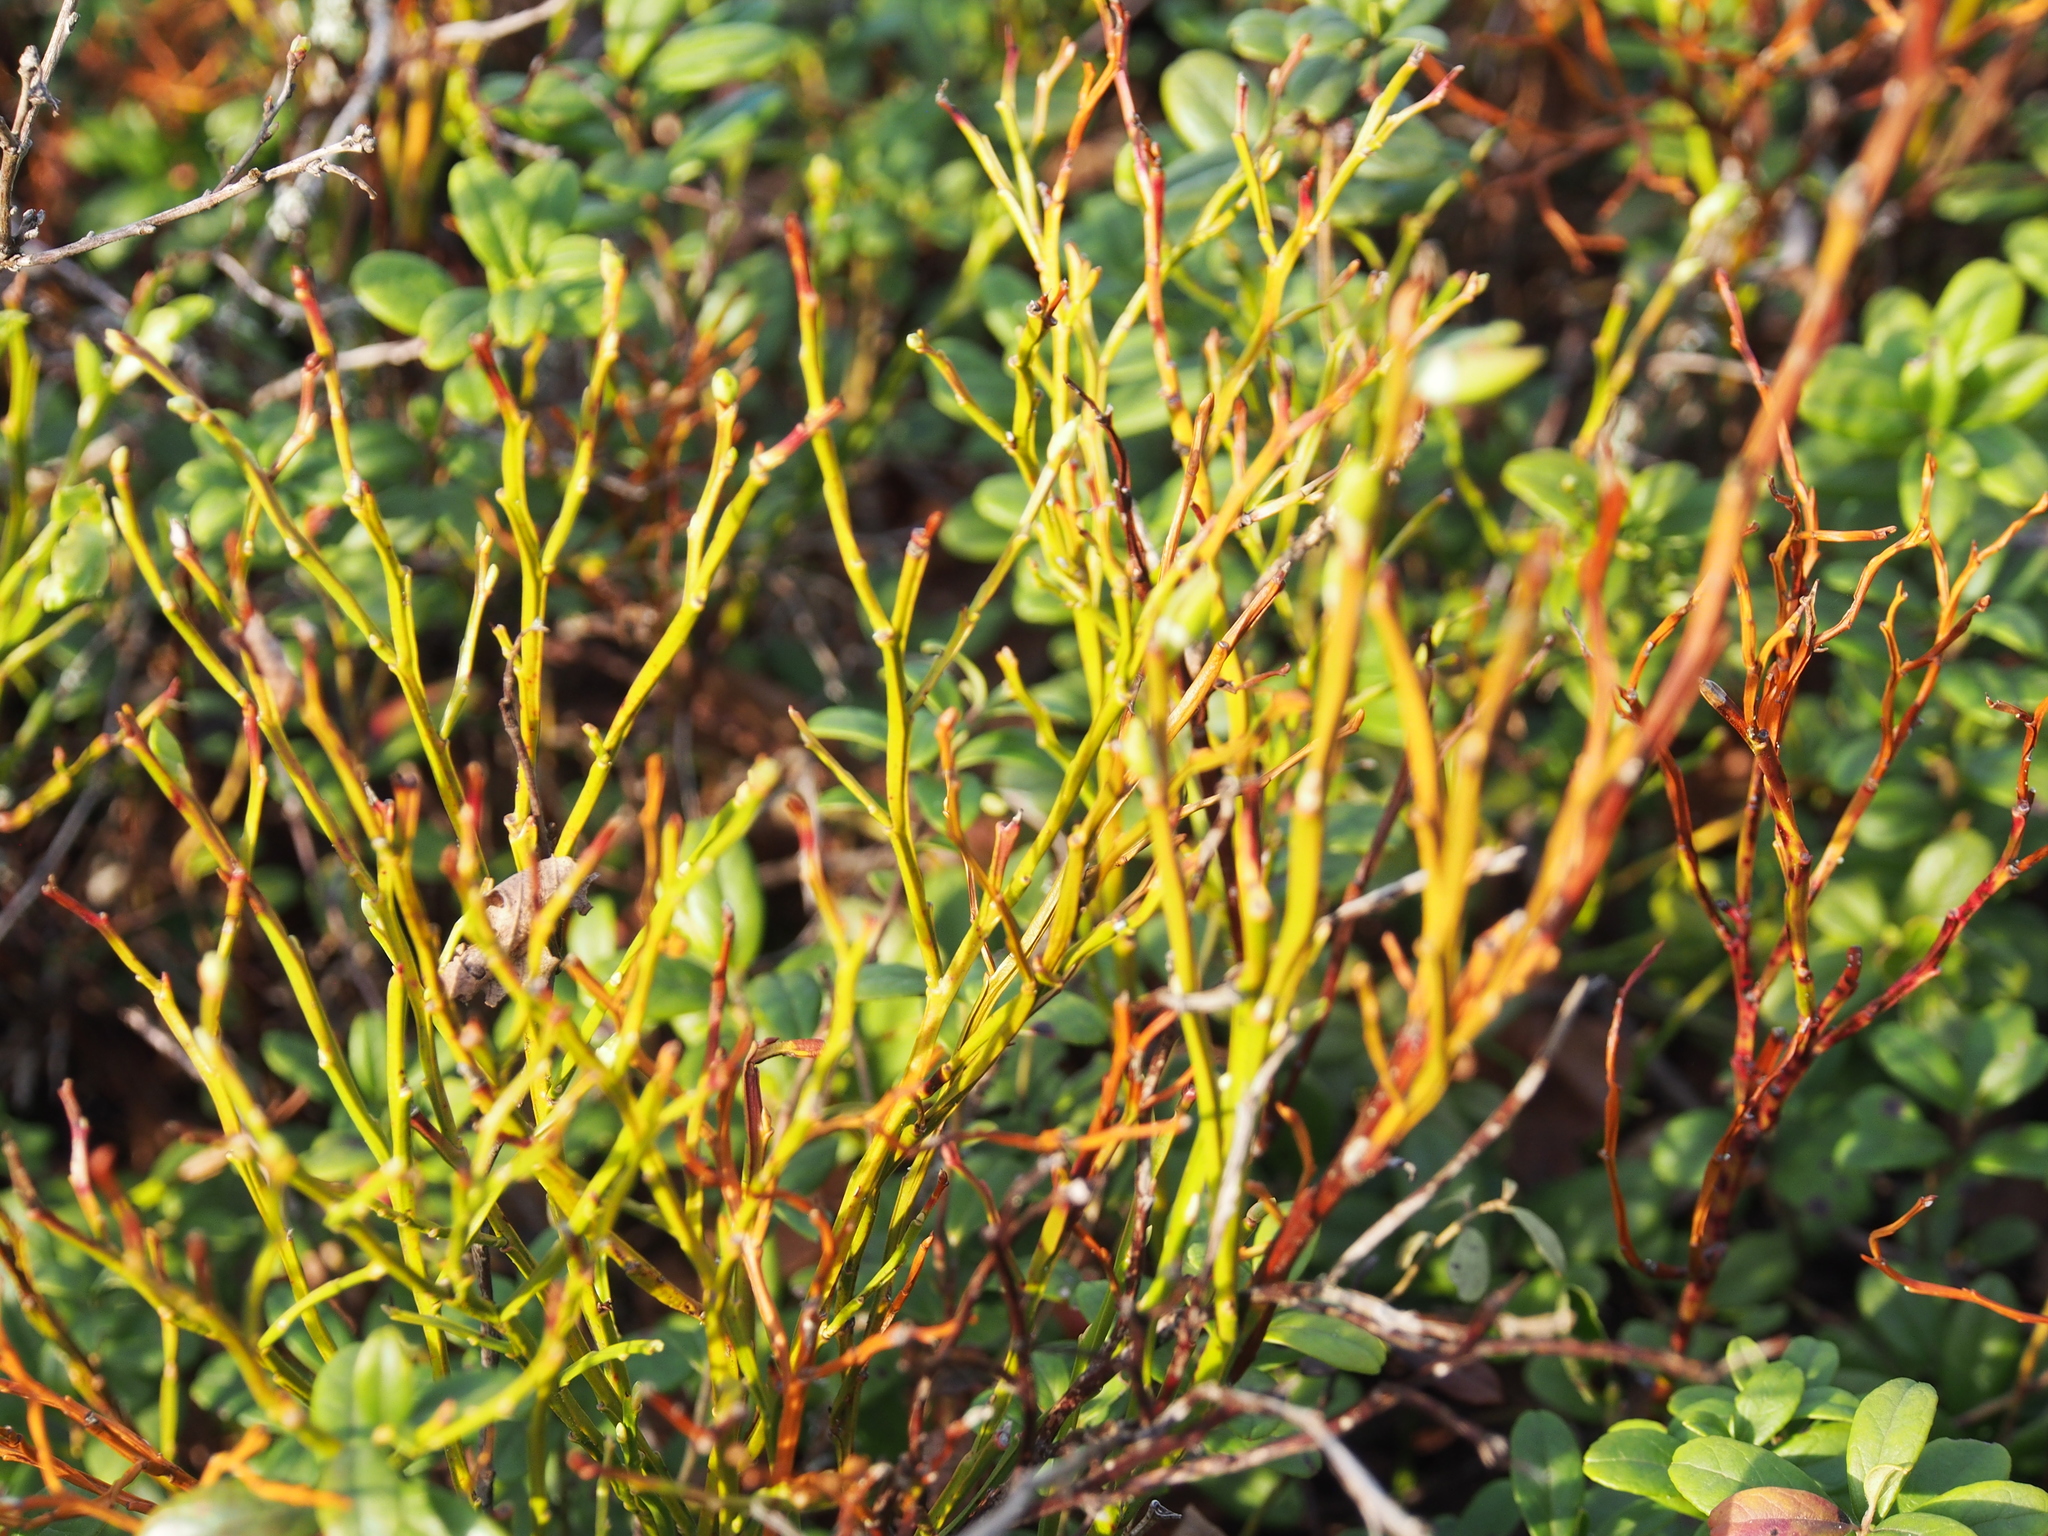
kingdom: Plantae
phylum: Tracheophyta
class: Magnoliopsida
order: Ericales
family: Ericaceae
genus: Vaccinium
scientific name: Vaccinium myrtillus
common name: Bilberry
